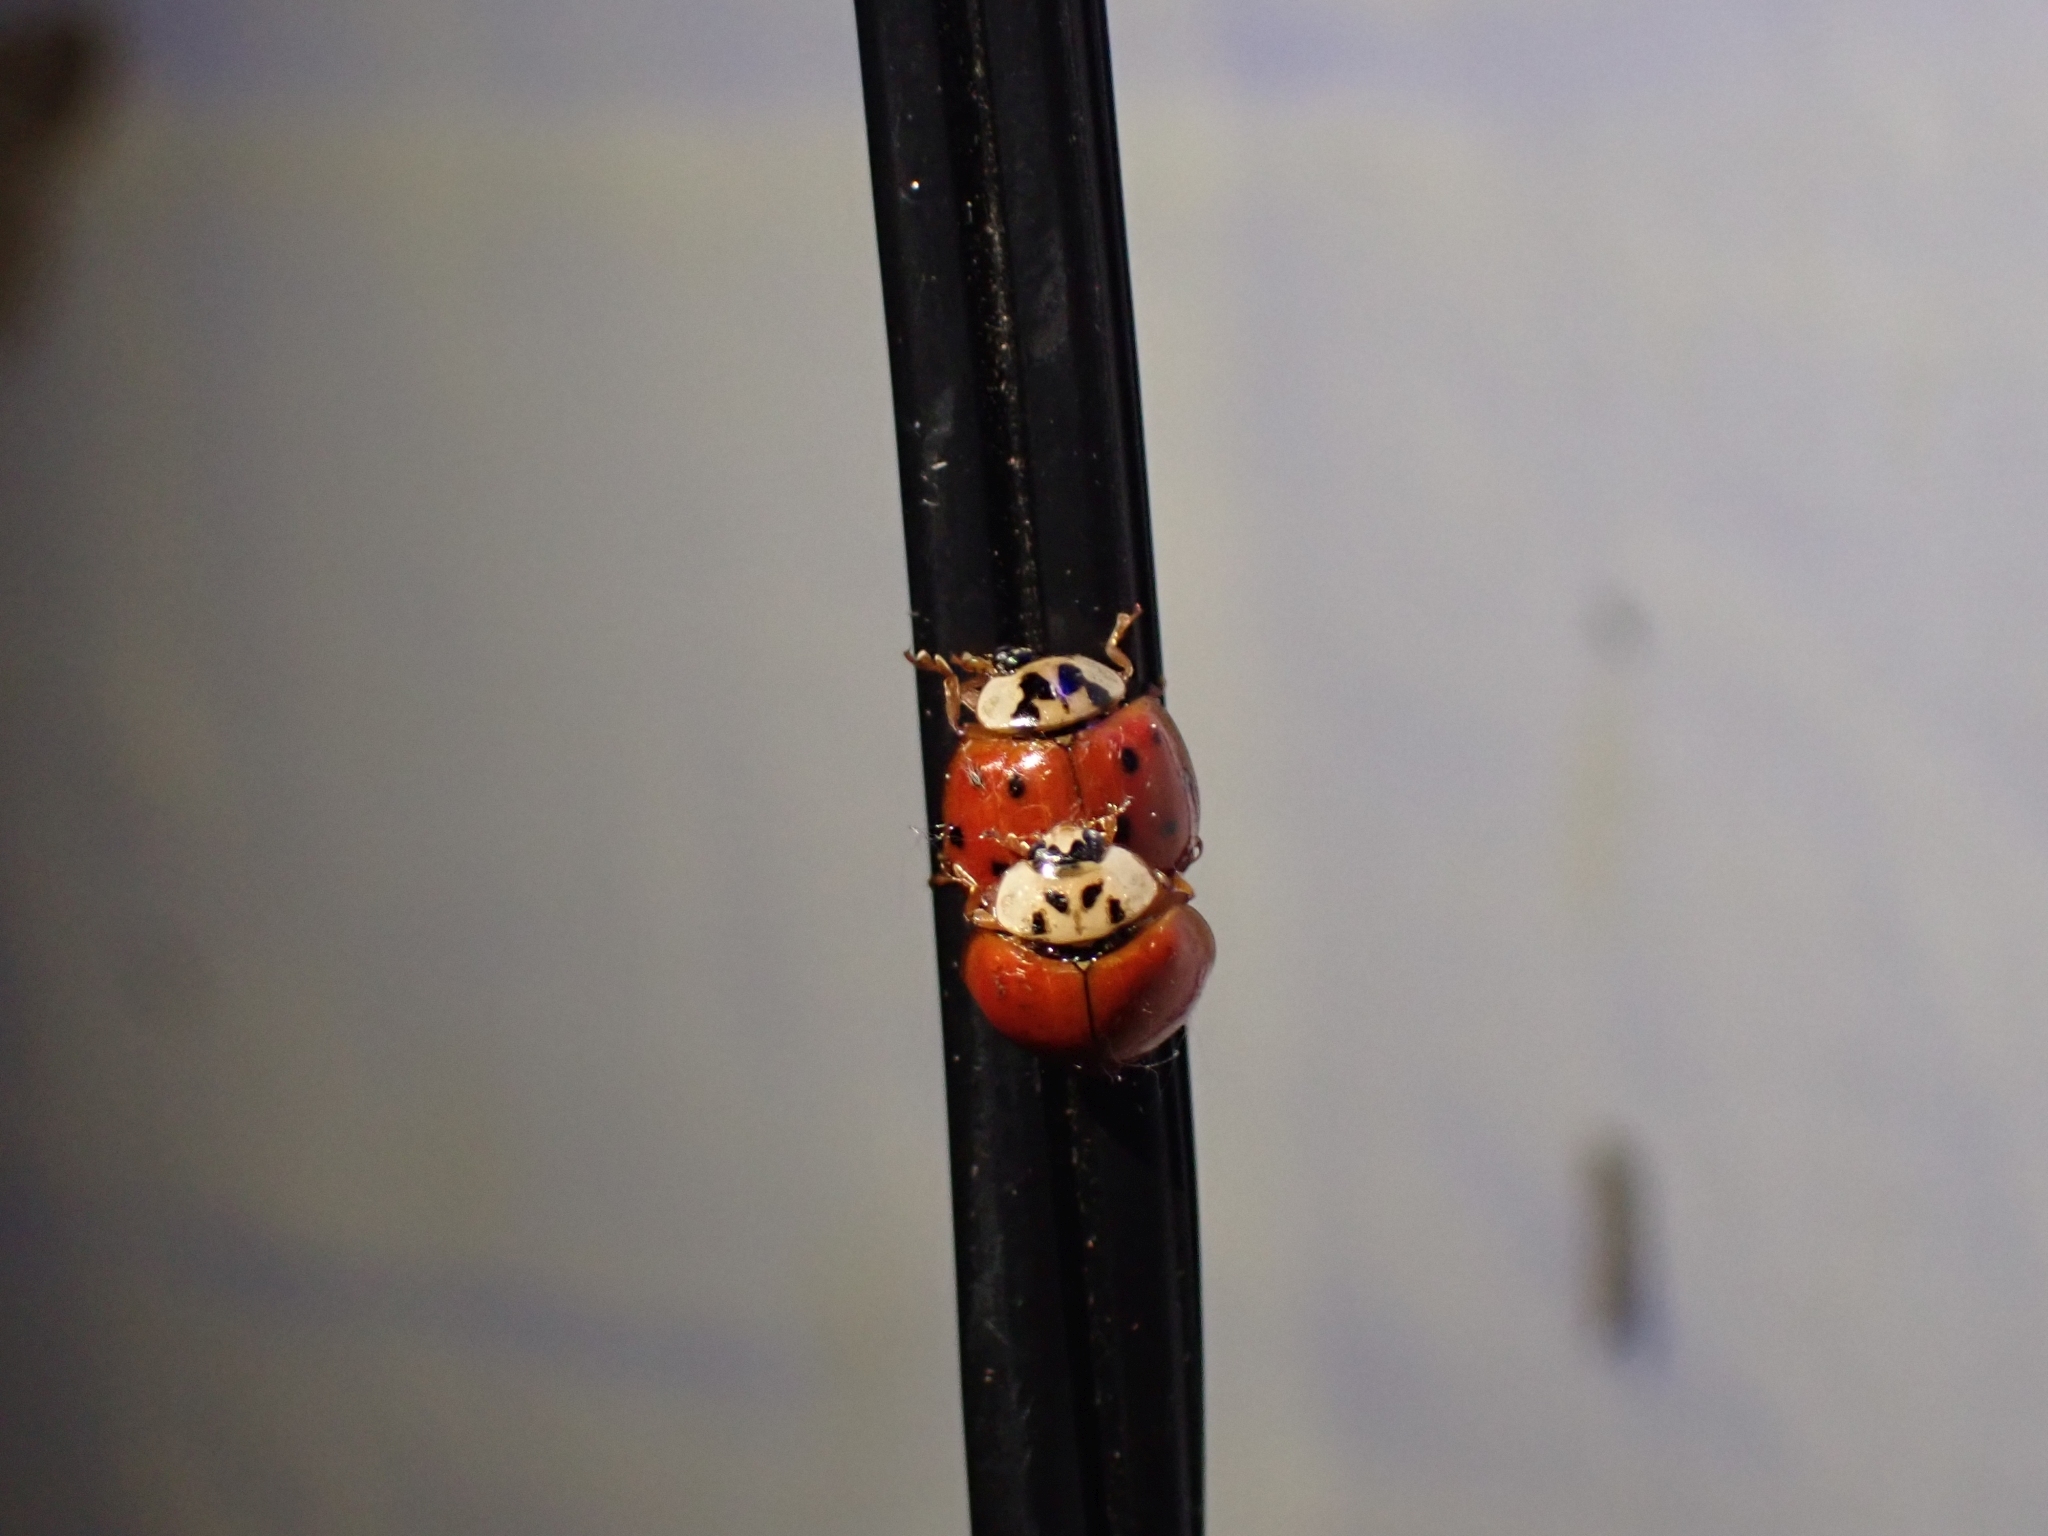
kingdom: Animalia
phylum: Arthropoda
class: Insecta
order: Coleoptera
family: Coccinellidae
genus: Harmonia
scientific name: Harmonia axyridis
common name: Harlequin ladybird
